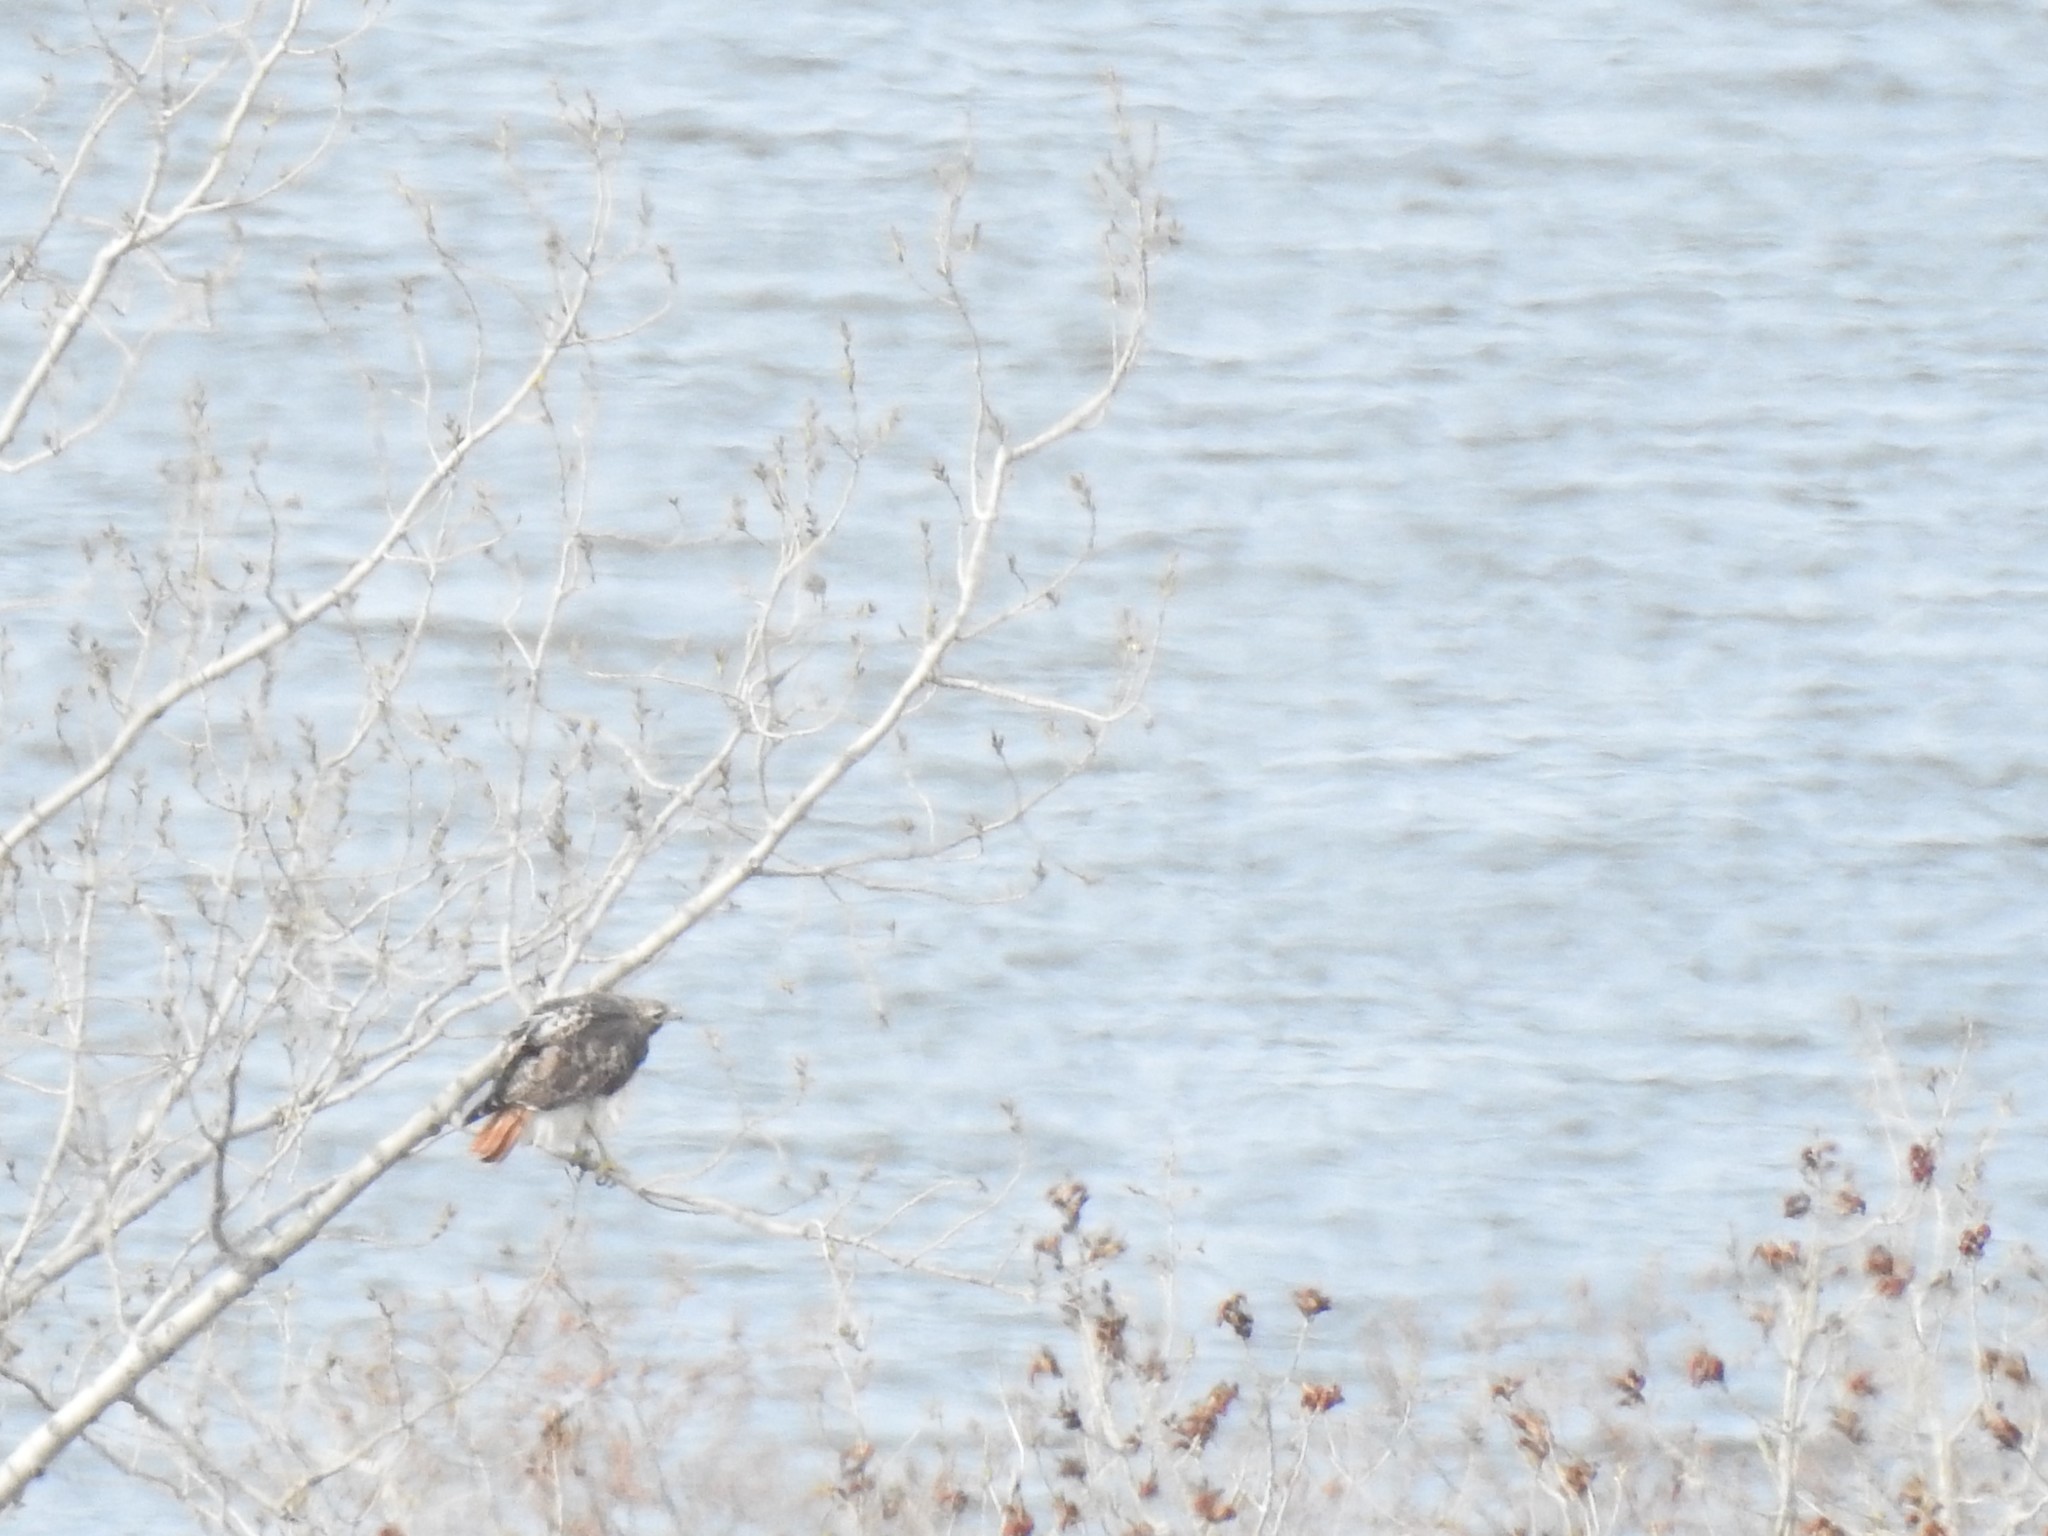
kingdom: Animalia
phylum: Chordata
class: Aves
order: Accipitriformes
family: Accipitridae
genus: Buteo
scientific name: Buteo jamaicensis
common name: Red-tailed hawk
